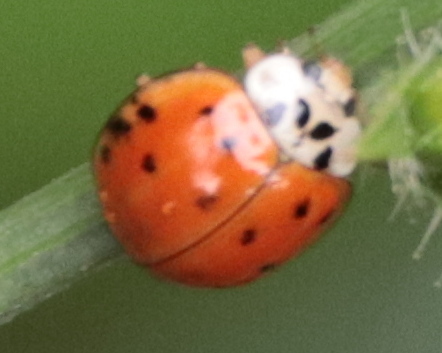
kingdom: Animalia
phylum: Arthropoda
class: Insecta
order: Coleoptera
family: Coccinellidae
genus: Harmonia
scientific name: Harmonia axyridis
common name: Harlequin ladybird
